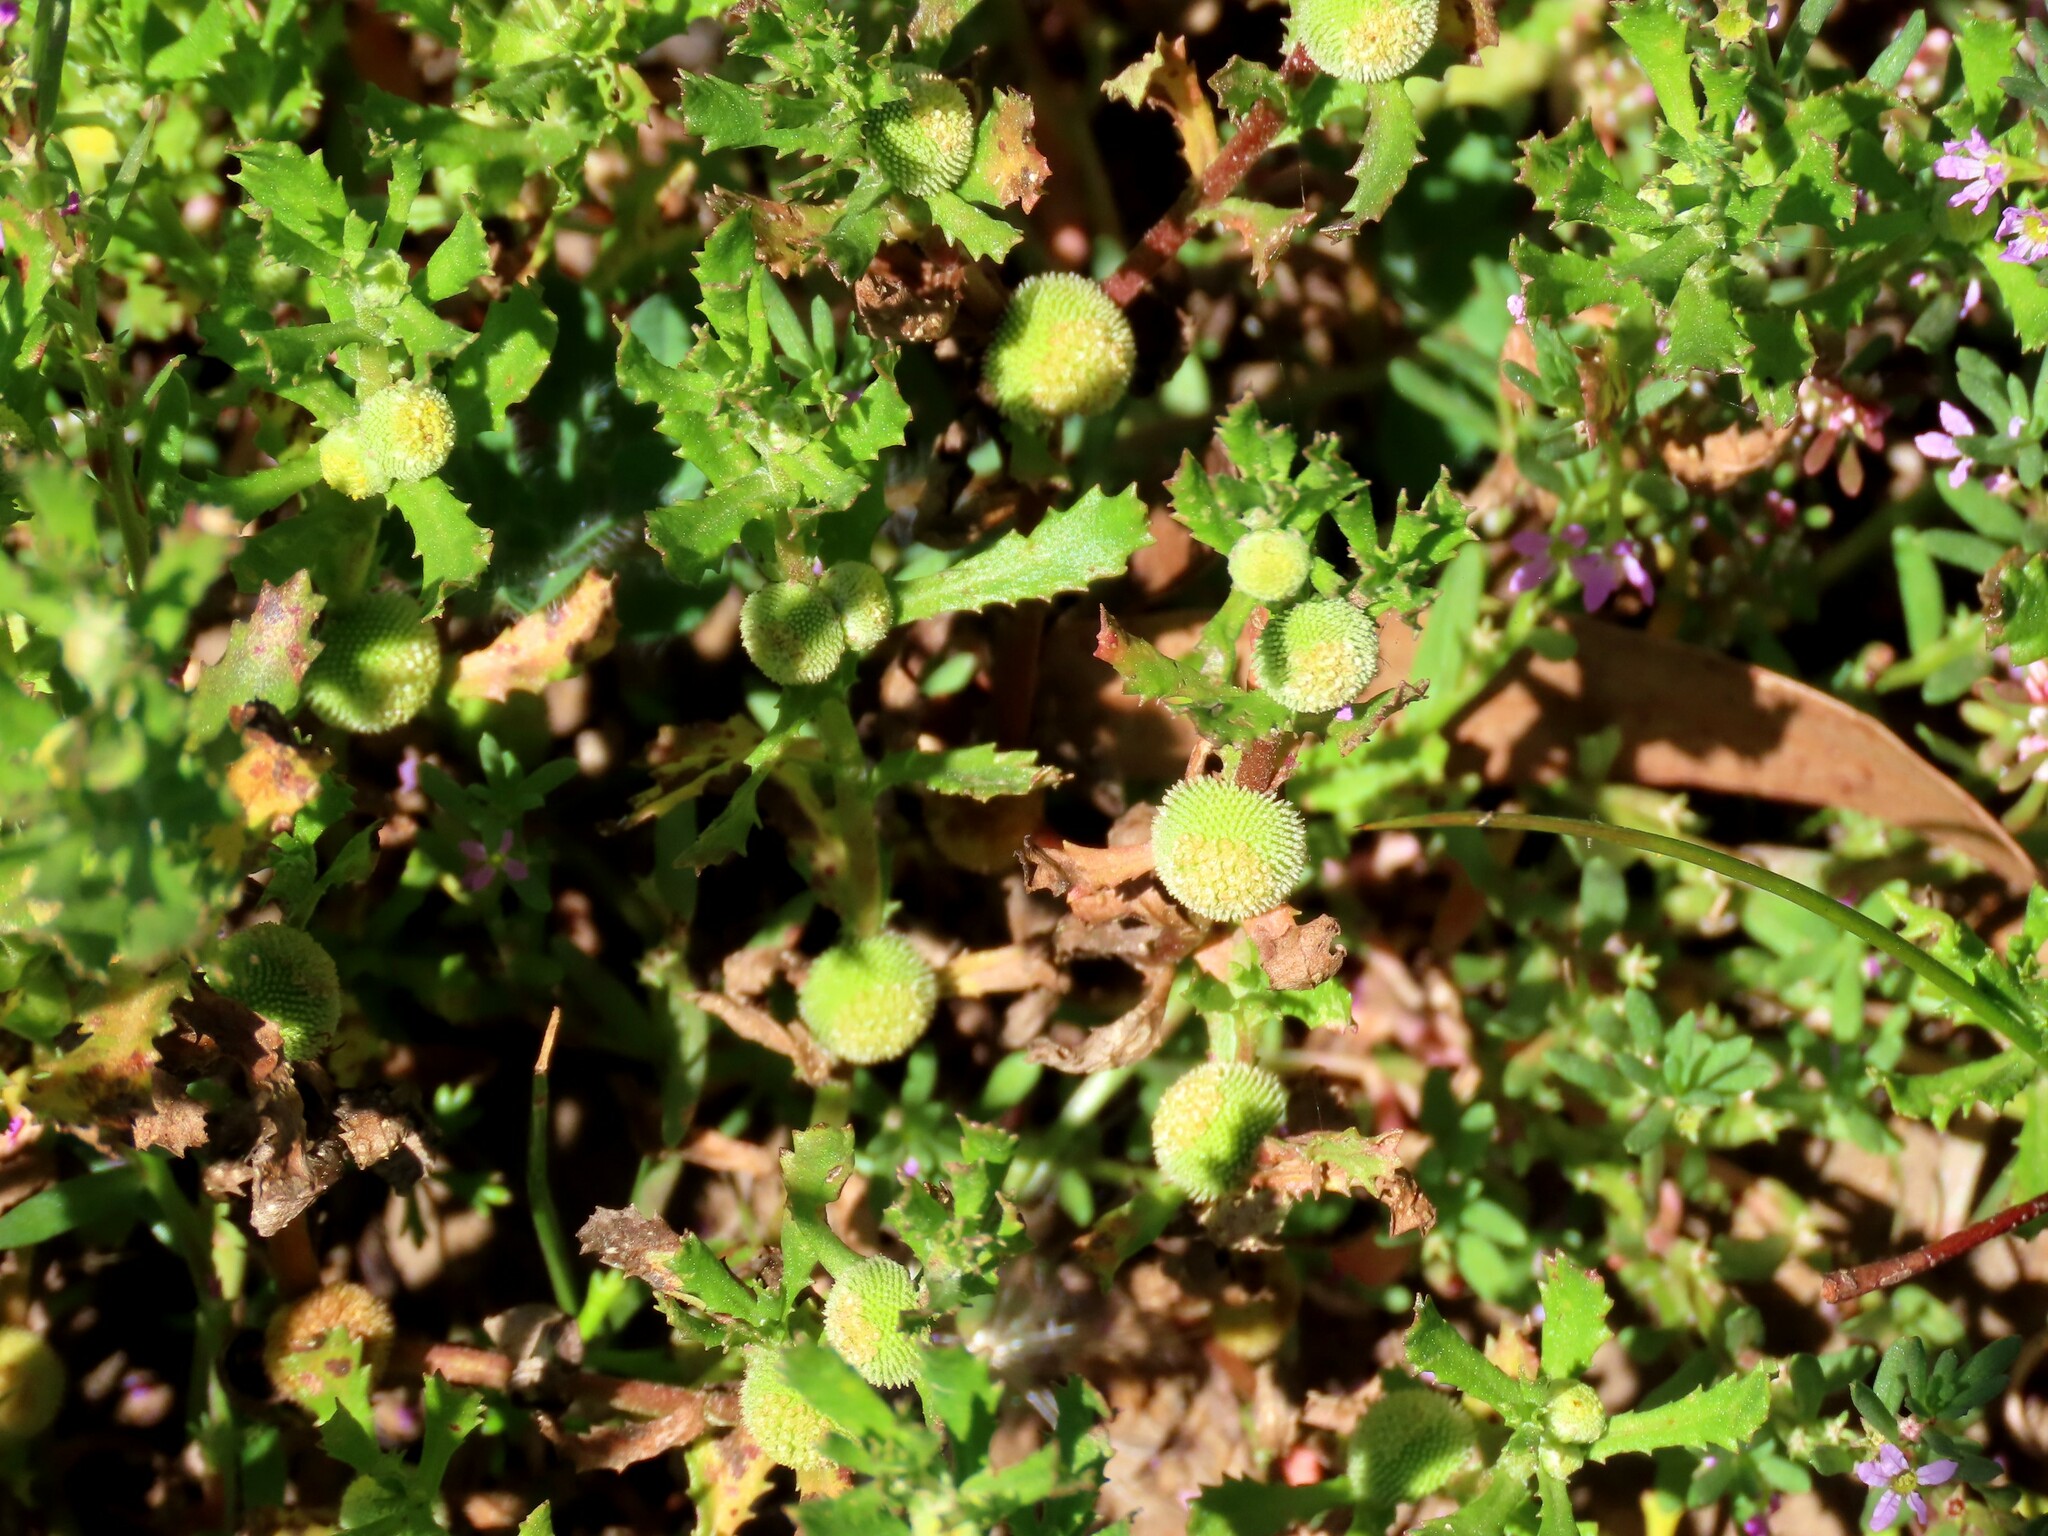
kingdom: Plantae
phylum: Tracheophyta
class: Magnoliopsida
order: Asterales
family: Asteraceae
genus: Centipeda
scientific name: Centipeda cunninghamii
